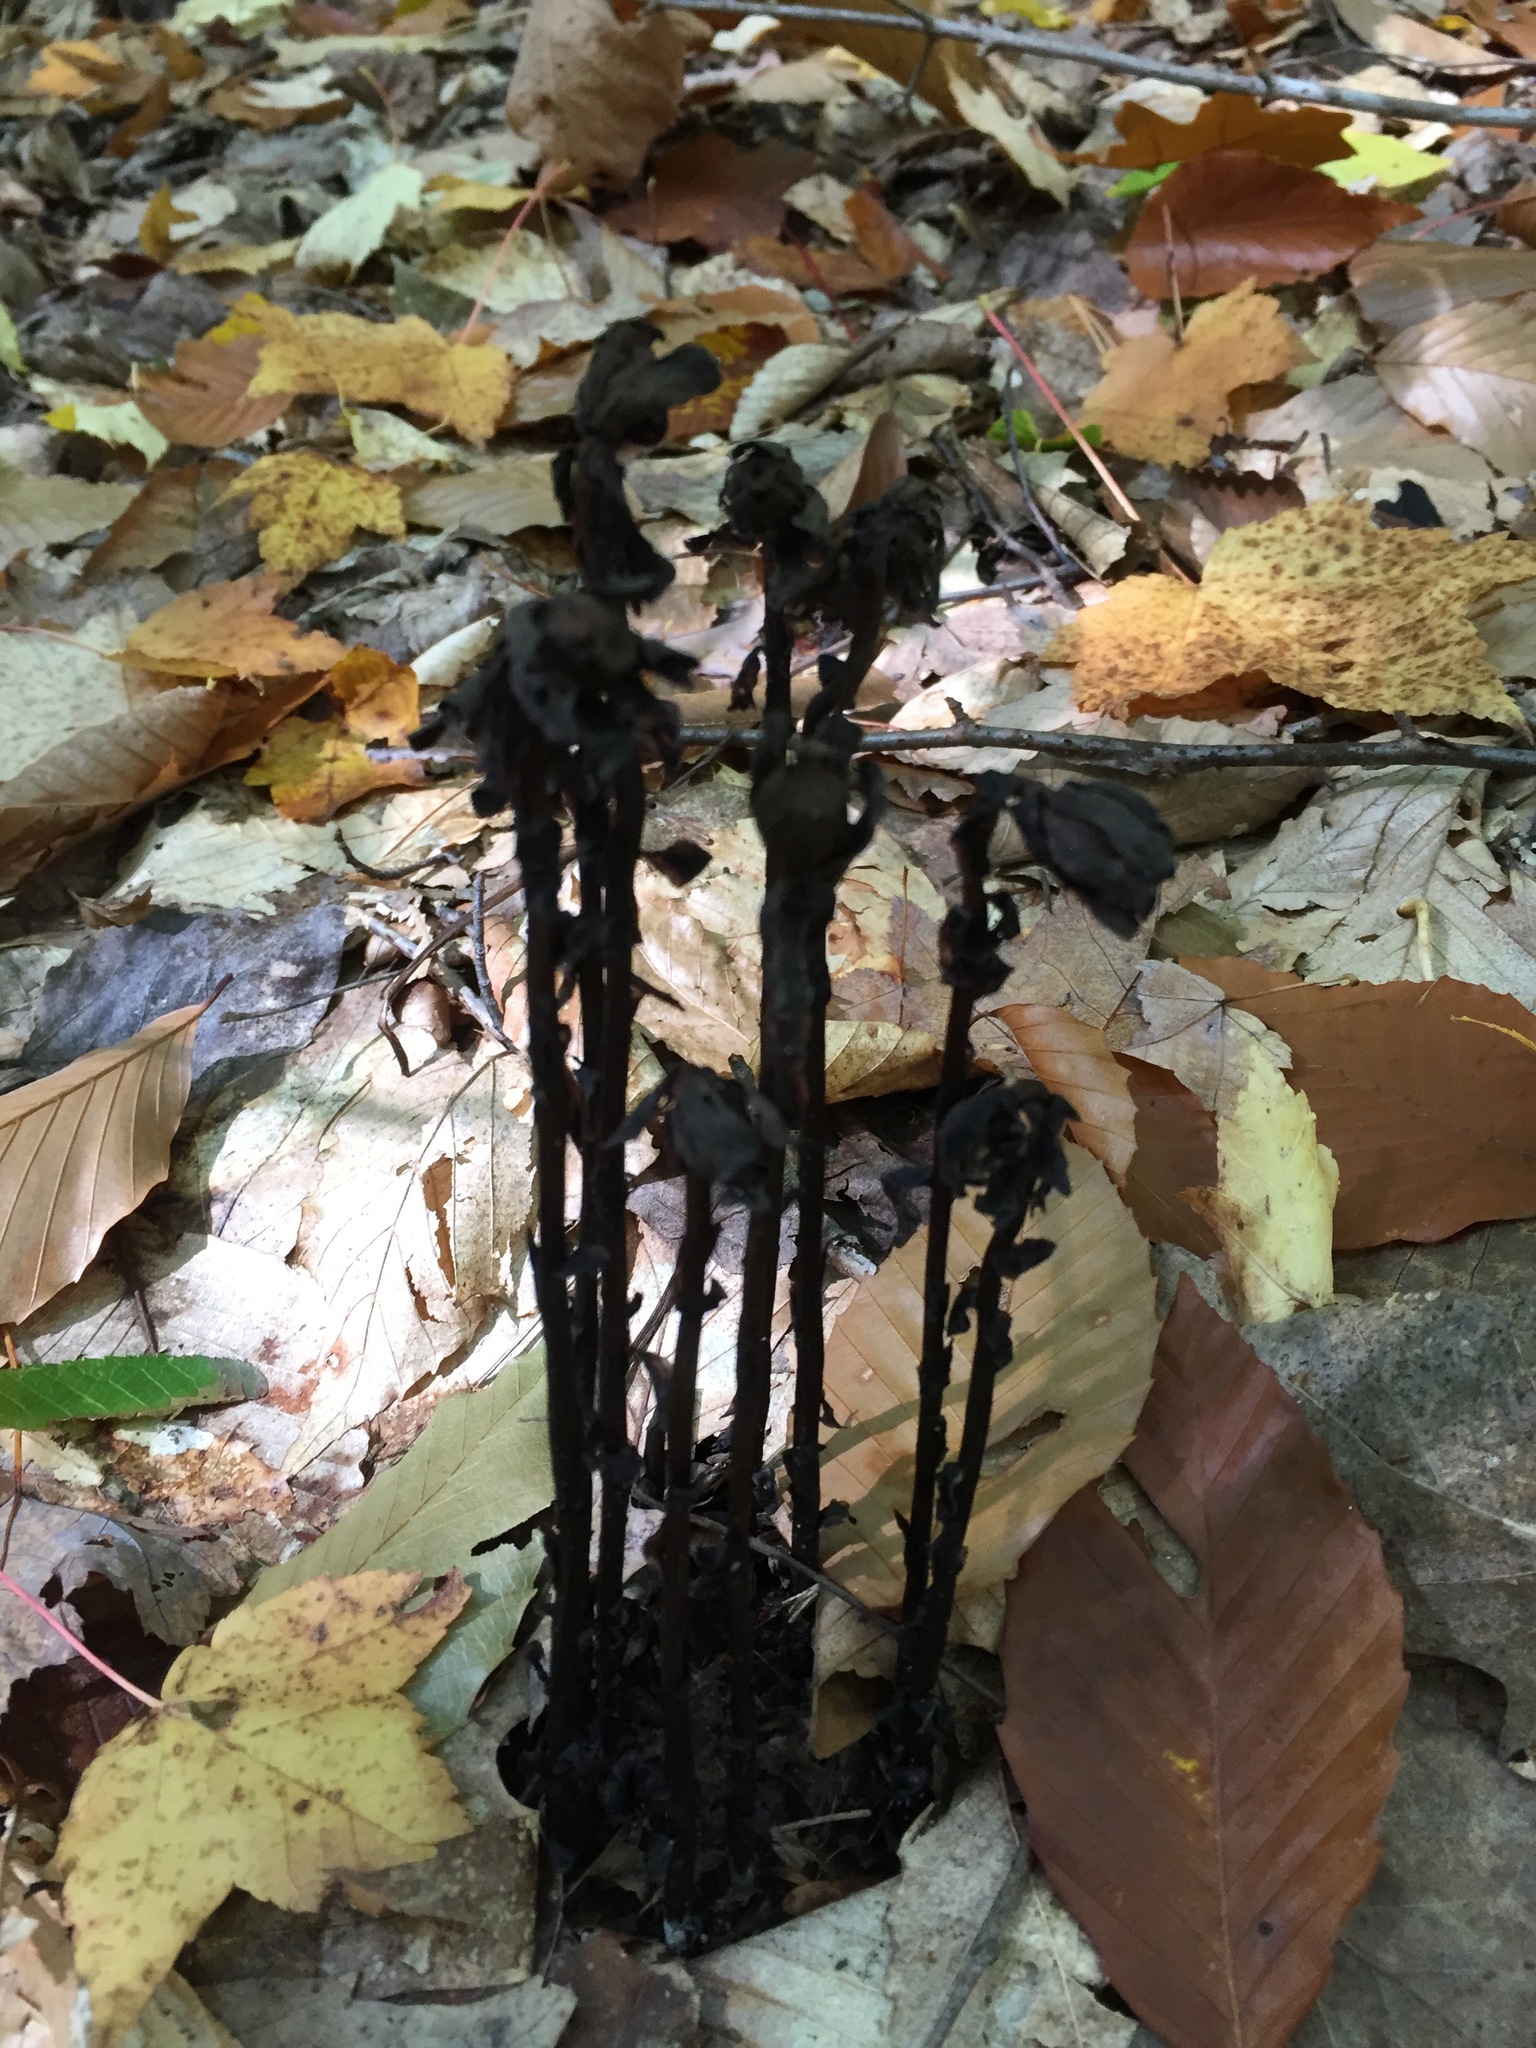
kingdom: Plantae
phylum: Tracheophyta
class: Magnoliopsida
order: Ericales
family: Ericaceae
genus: Monotropa
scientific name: Monotropa uniflora
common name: Convulsion root
